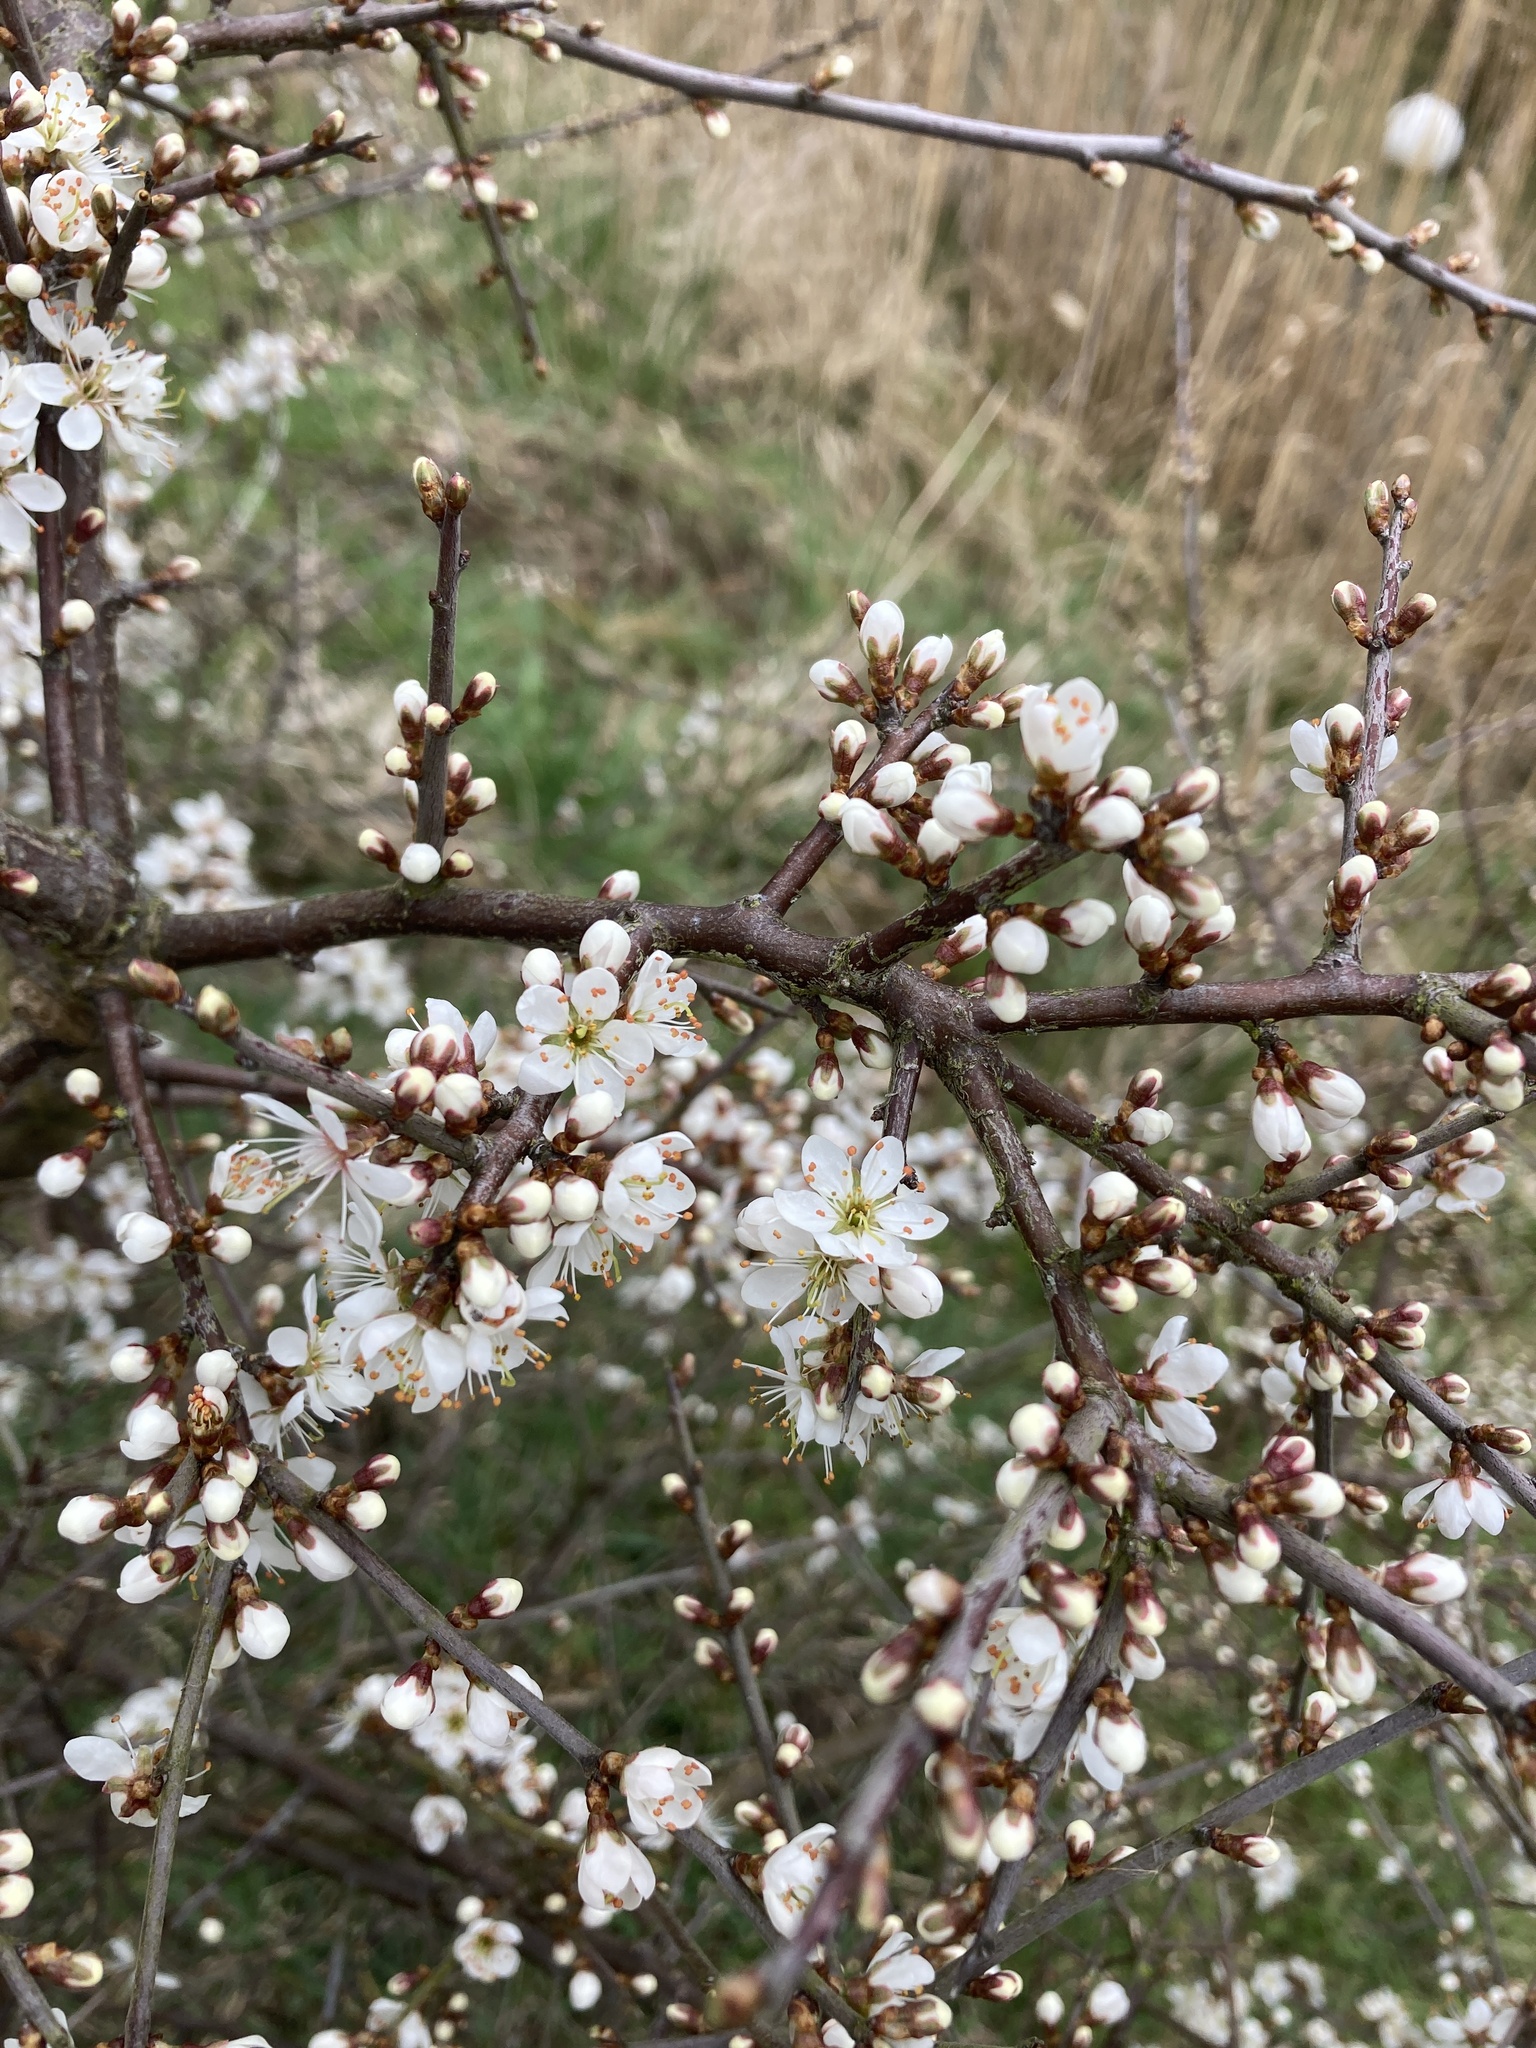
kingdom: Plantae
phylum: Tracheophyta
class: Magnoliopsida
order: Rosales
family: Rosaceae
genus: Prunus
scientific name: Prunus spinosa
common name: Blackthorn
